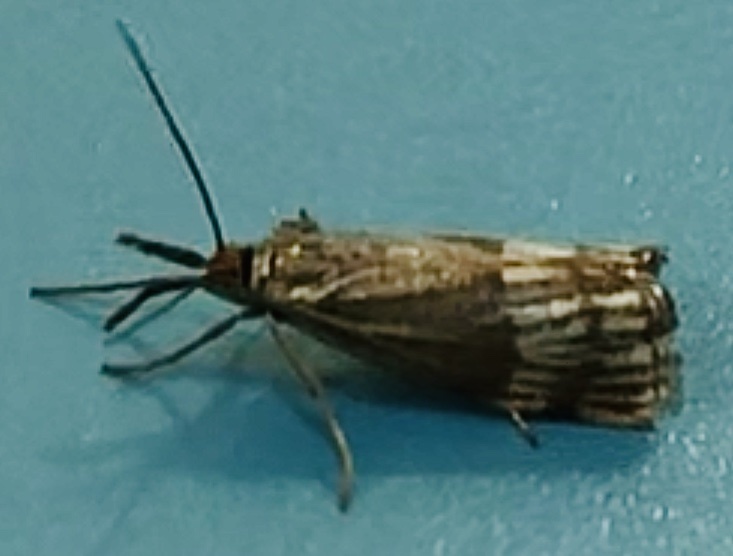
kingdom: Animalia
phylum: Arthropoda
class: Insecta
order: Lepidoptera
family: Crambidae
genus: Chrysocrambus
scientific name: Chrysocrambus linetella
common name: Orange-bar grass-veneer
